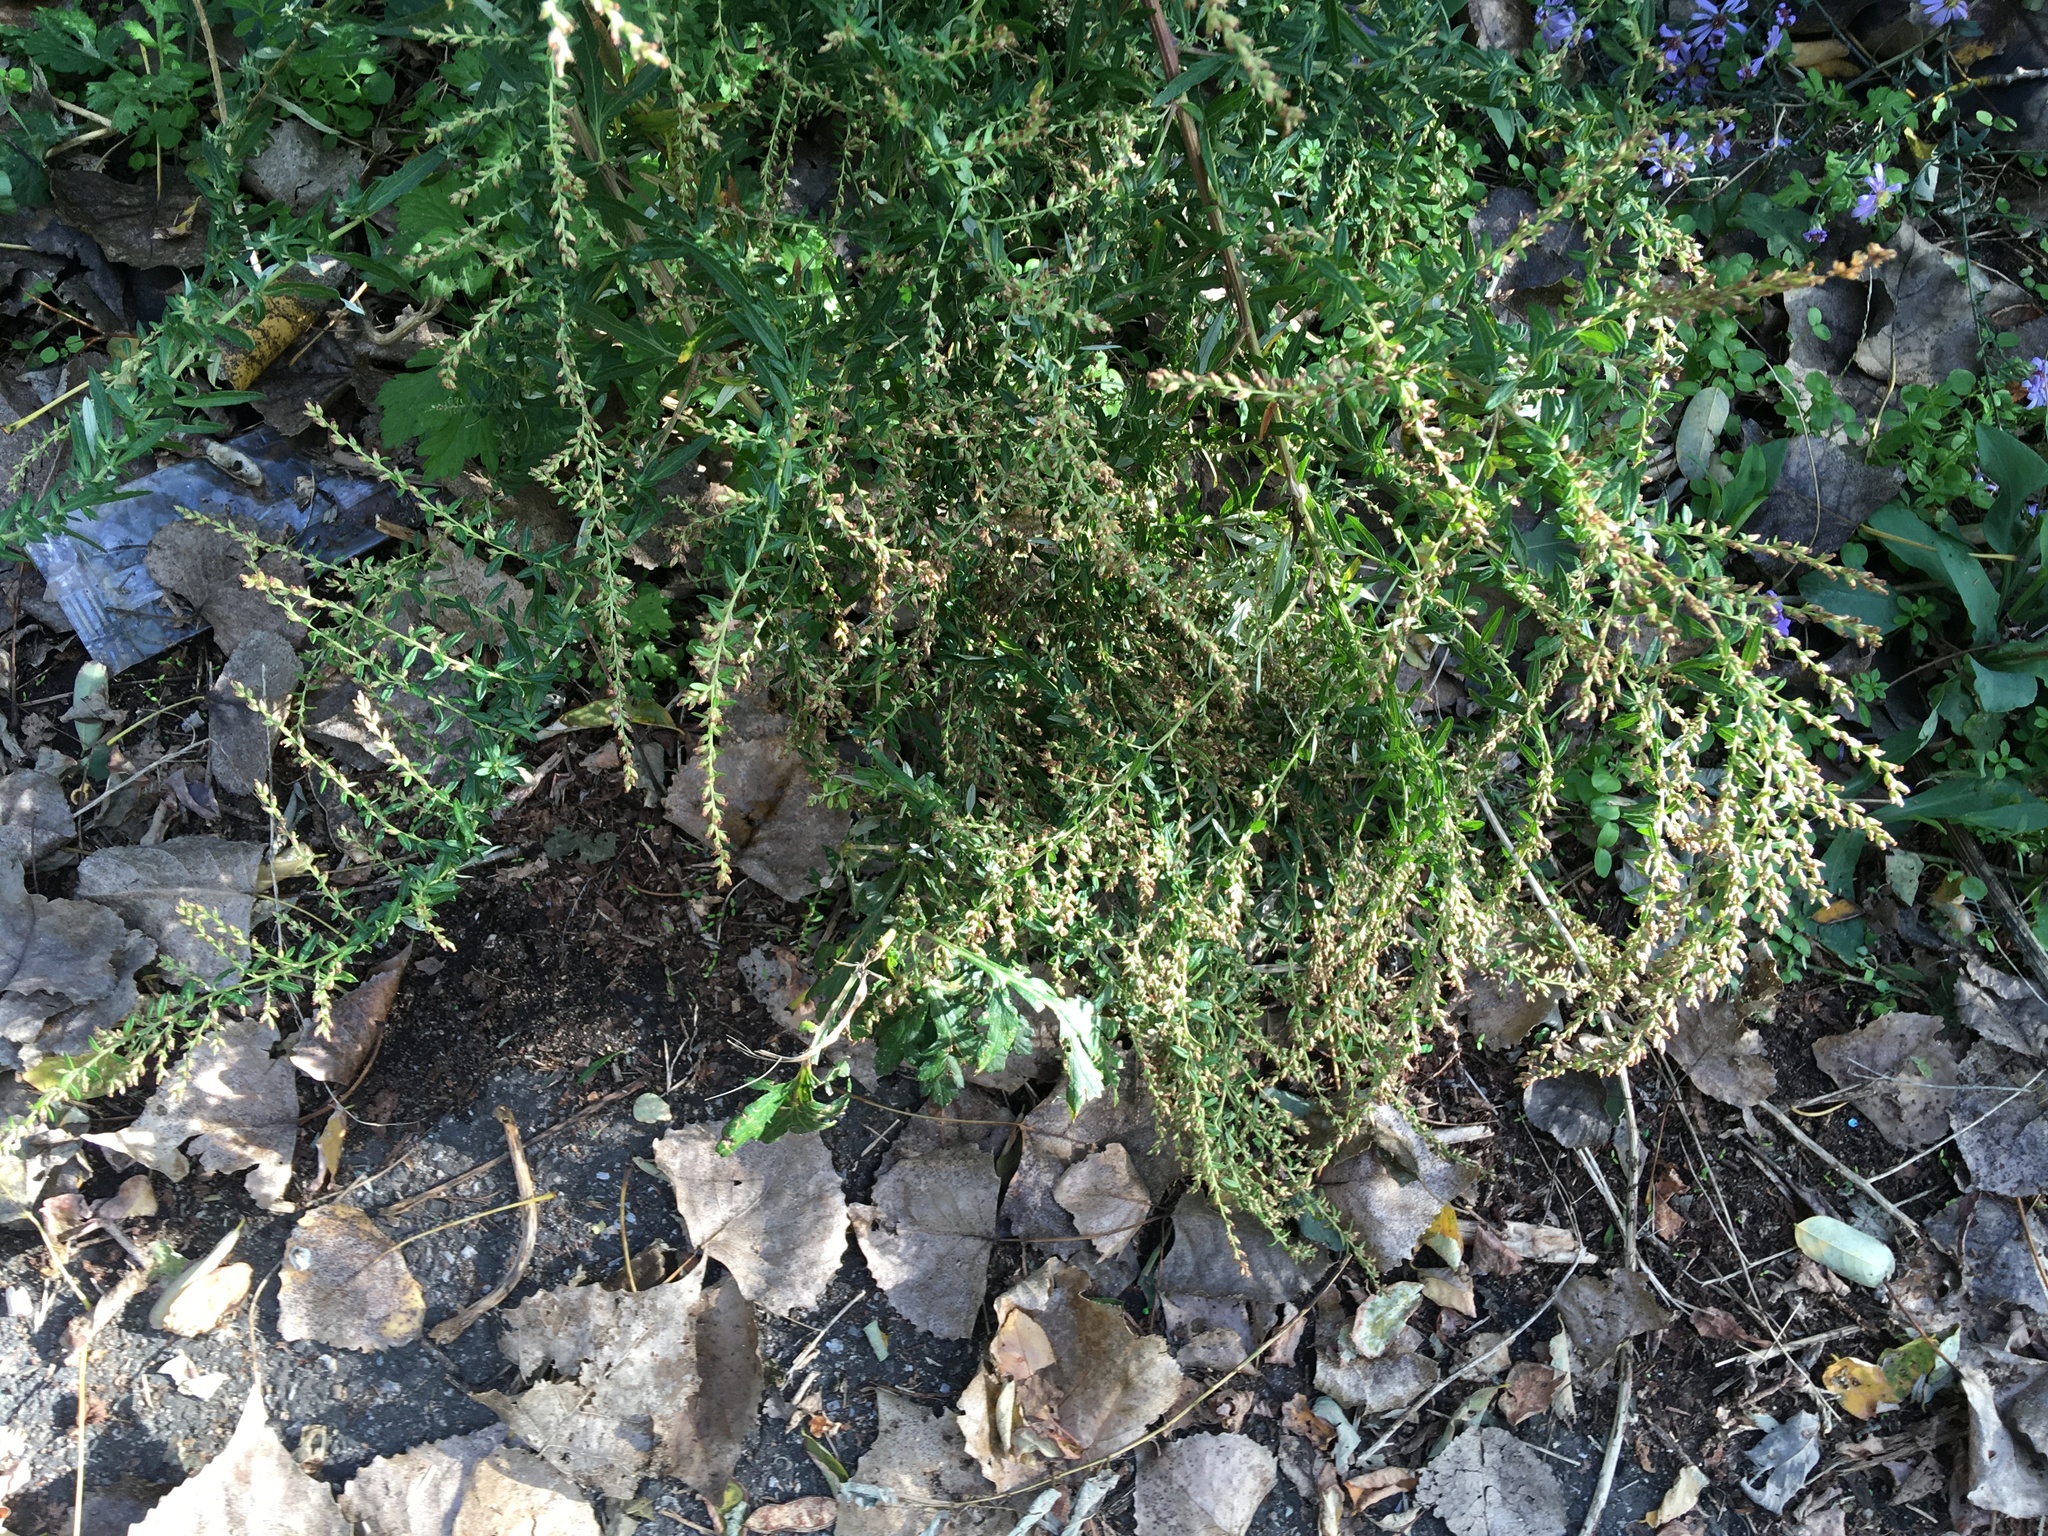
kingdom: Plantae
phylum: Tracheophyta
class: Magnoliopsida
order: Asterales
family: Asteraceae
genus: Artemisia
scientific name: Artemisia vulgaris
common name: Mugwort
